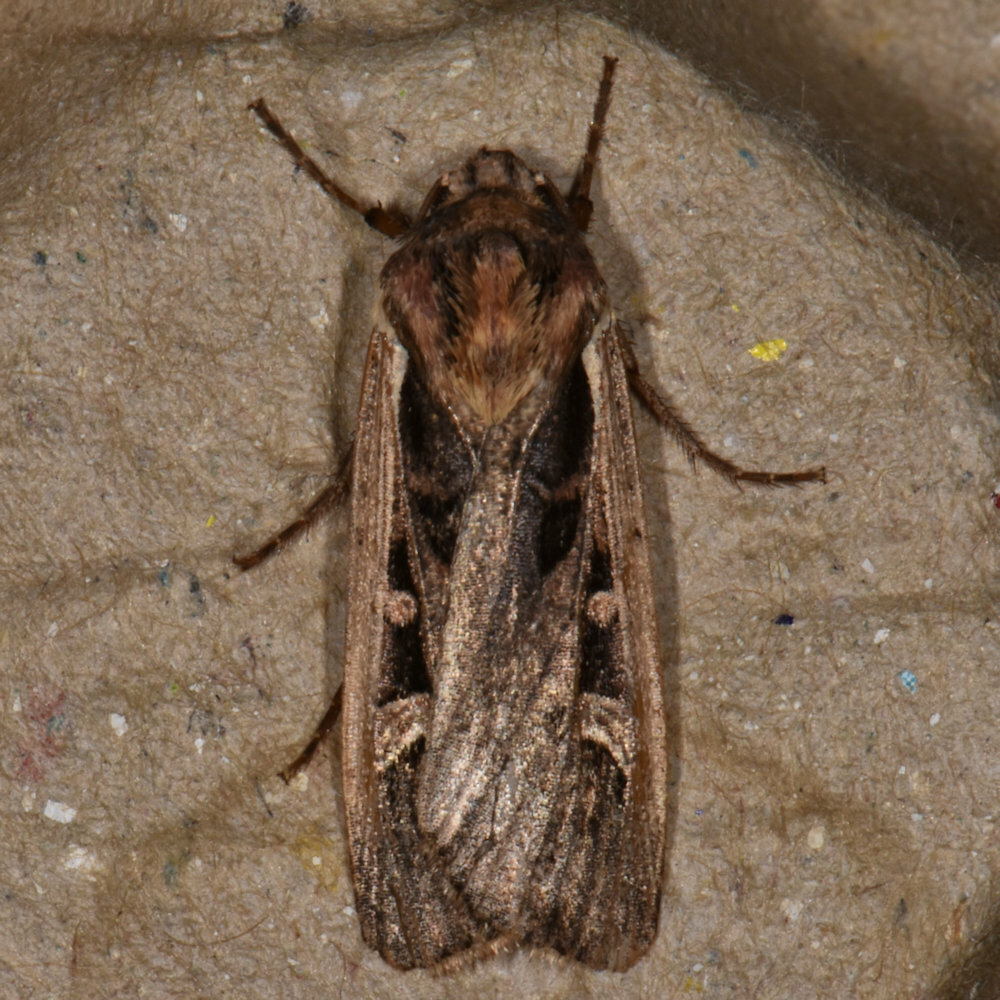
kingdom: Animalia
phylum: Arthropoda
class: Insecta
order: Lepidoptera
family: Noctuidae
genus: Striacosta
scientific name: Striacosta albicosta
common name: Western bean cutworm moth
